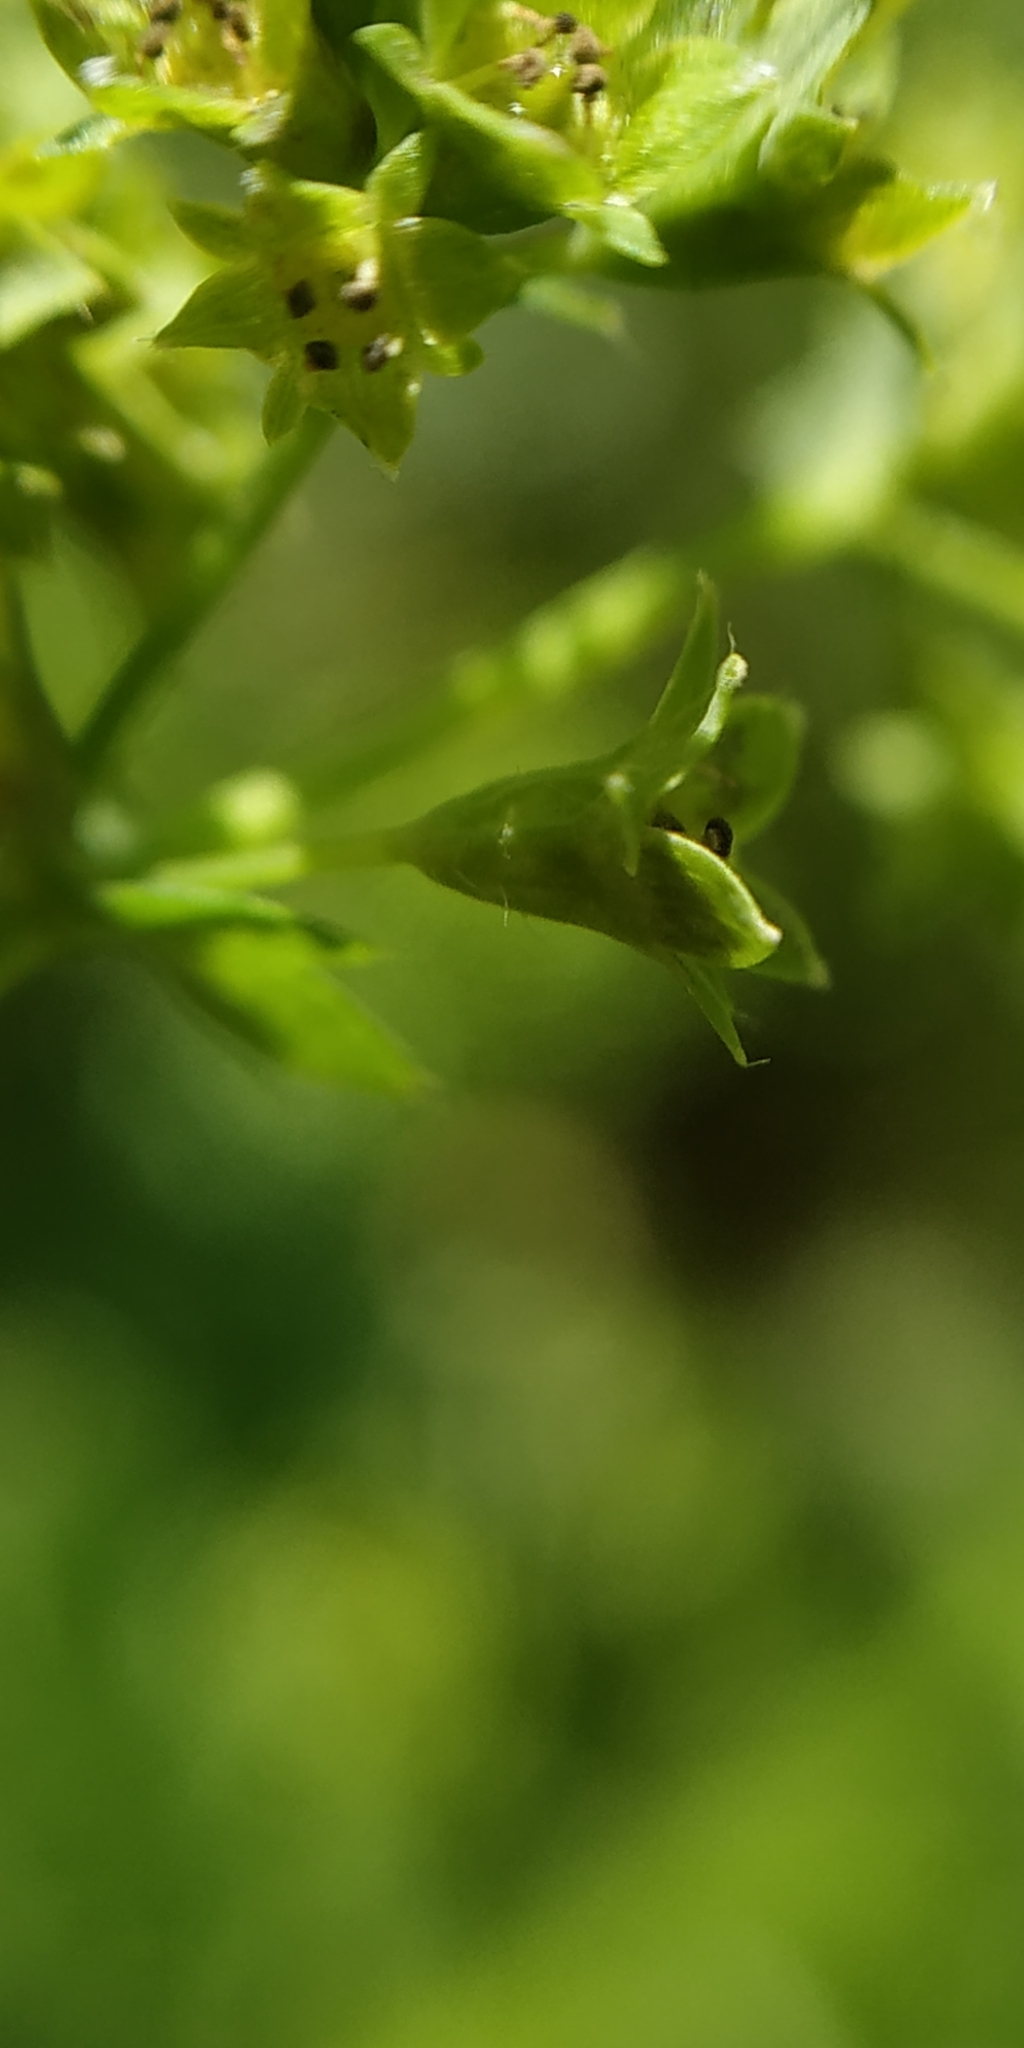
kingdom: Plantae
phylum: Tracheophyta
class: Magnoliopsida
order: Rosales
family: Rosaceae
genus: Alchemilla
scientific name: Alchemilla breviloba
